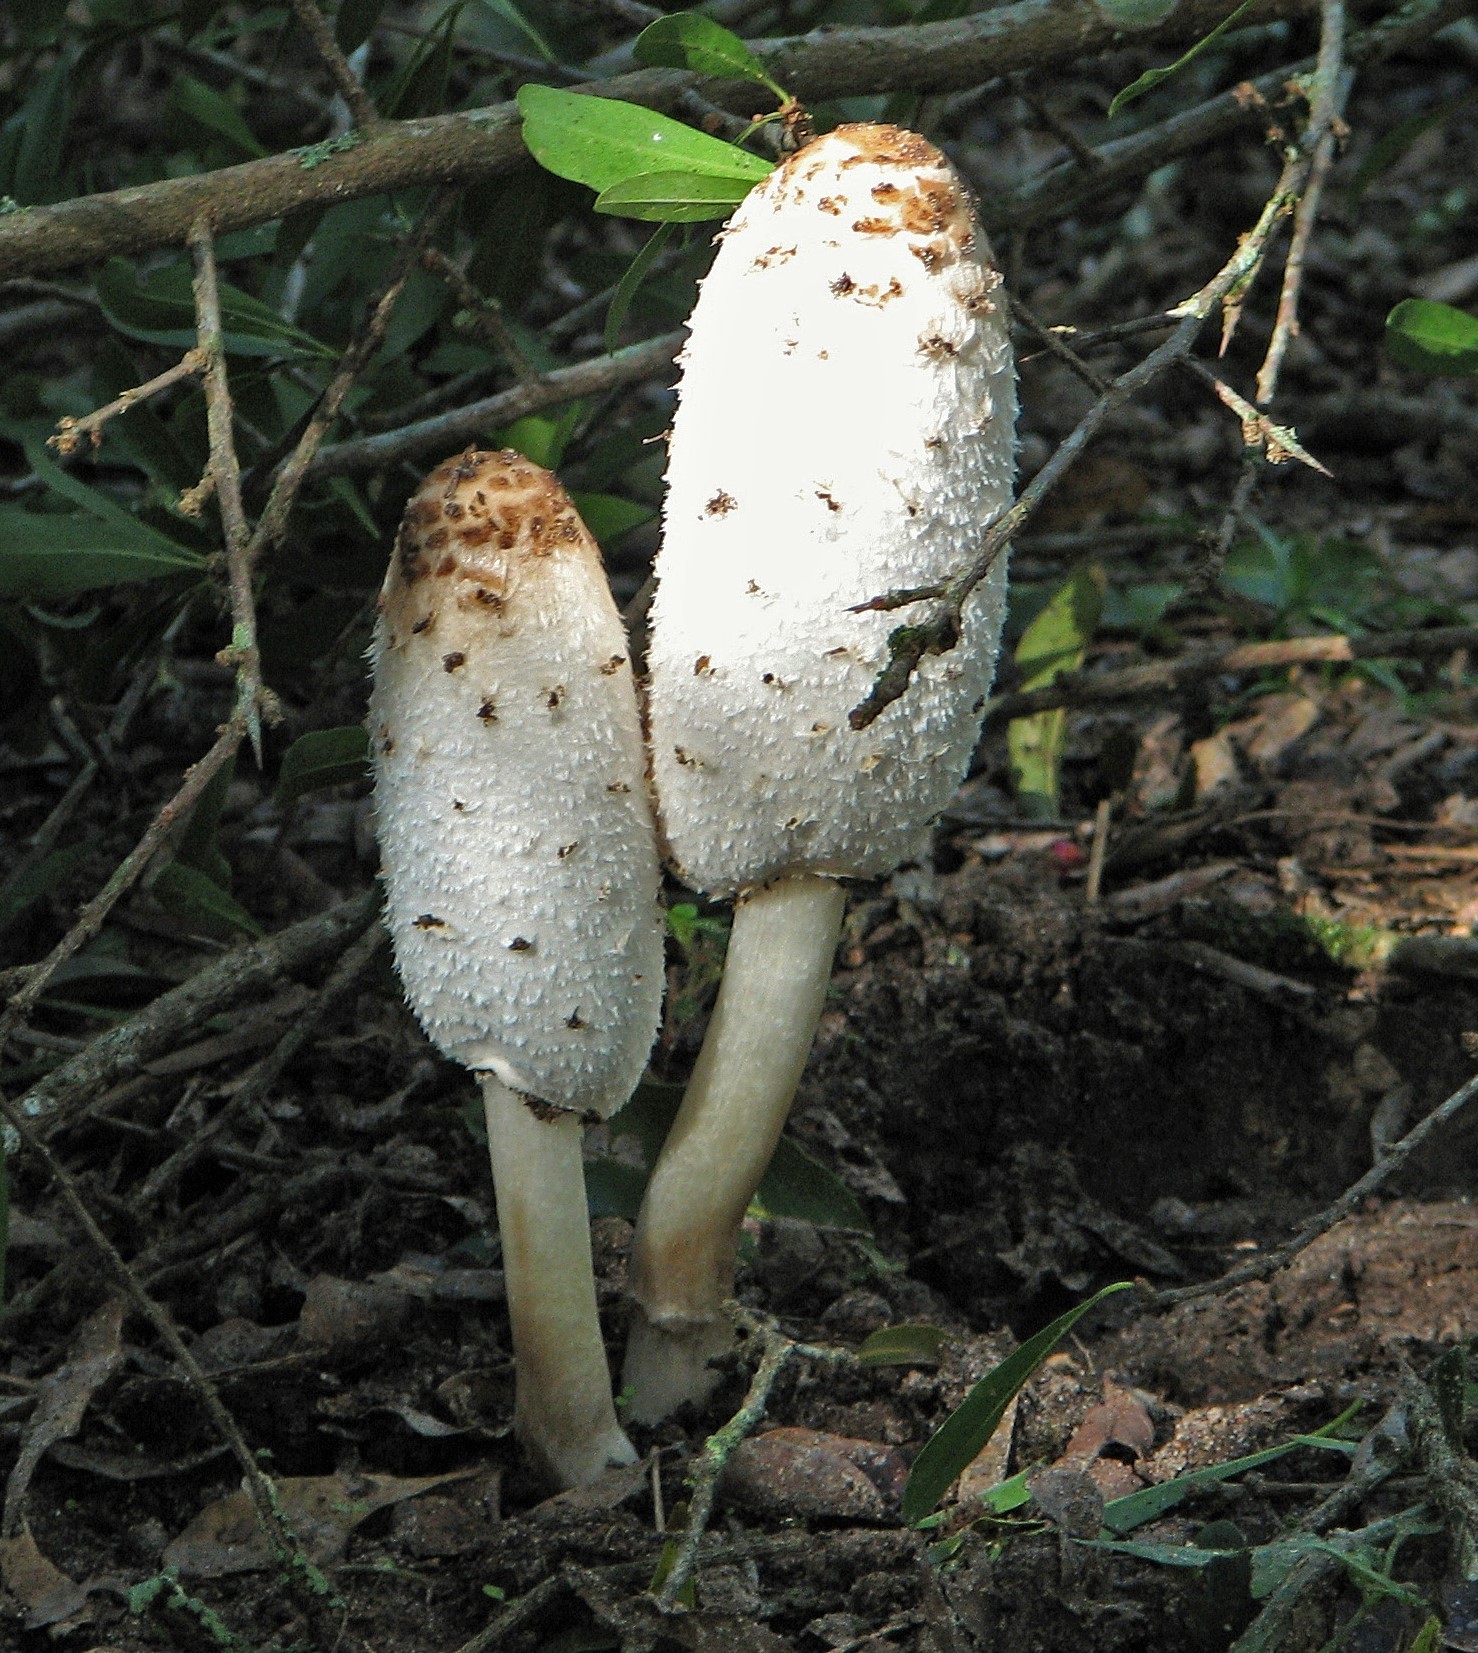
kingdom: Fungi
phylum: Basidiomycota
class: Agaricomycetes
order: Agaricales
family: Agaricaceae
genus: Coprinus
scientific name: Coprinus comatus
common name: Lawyer's wig
